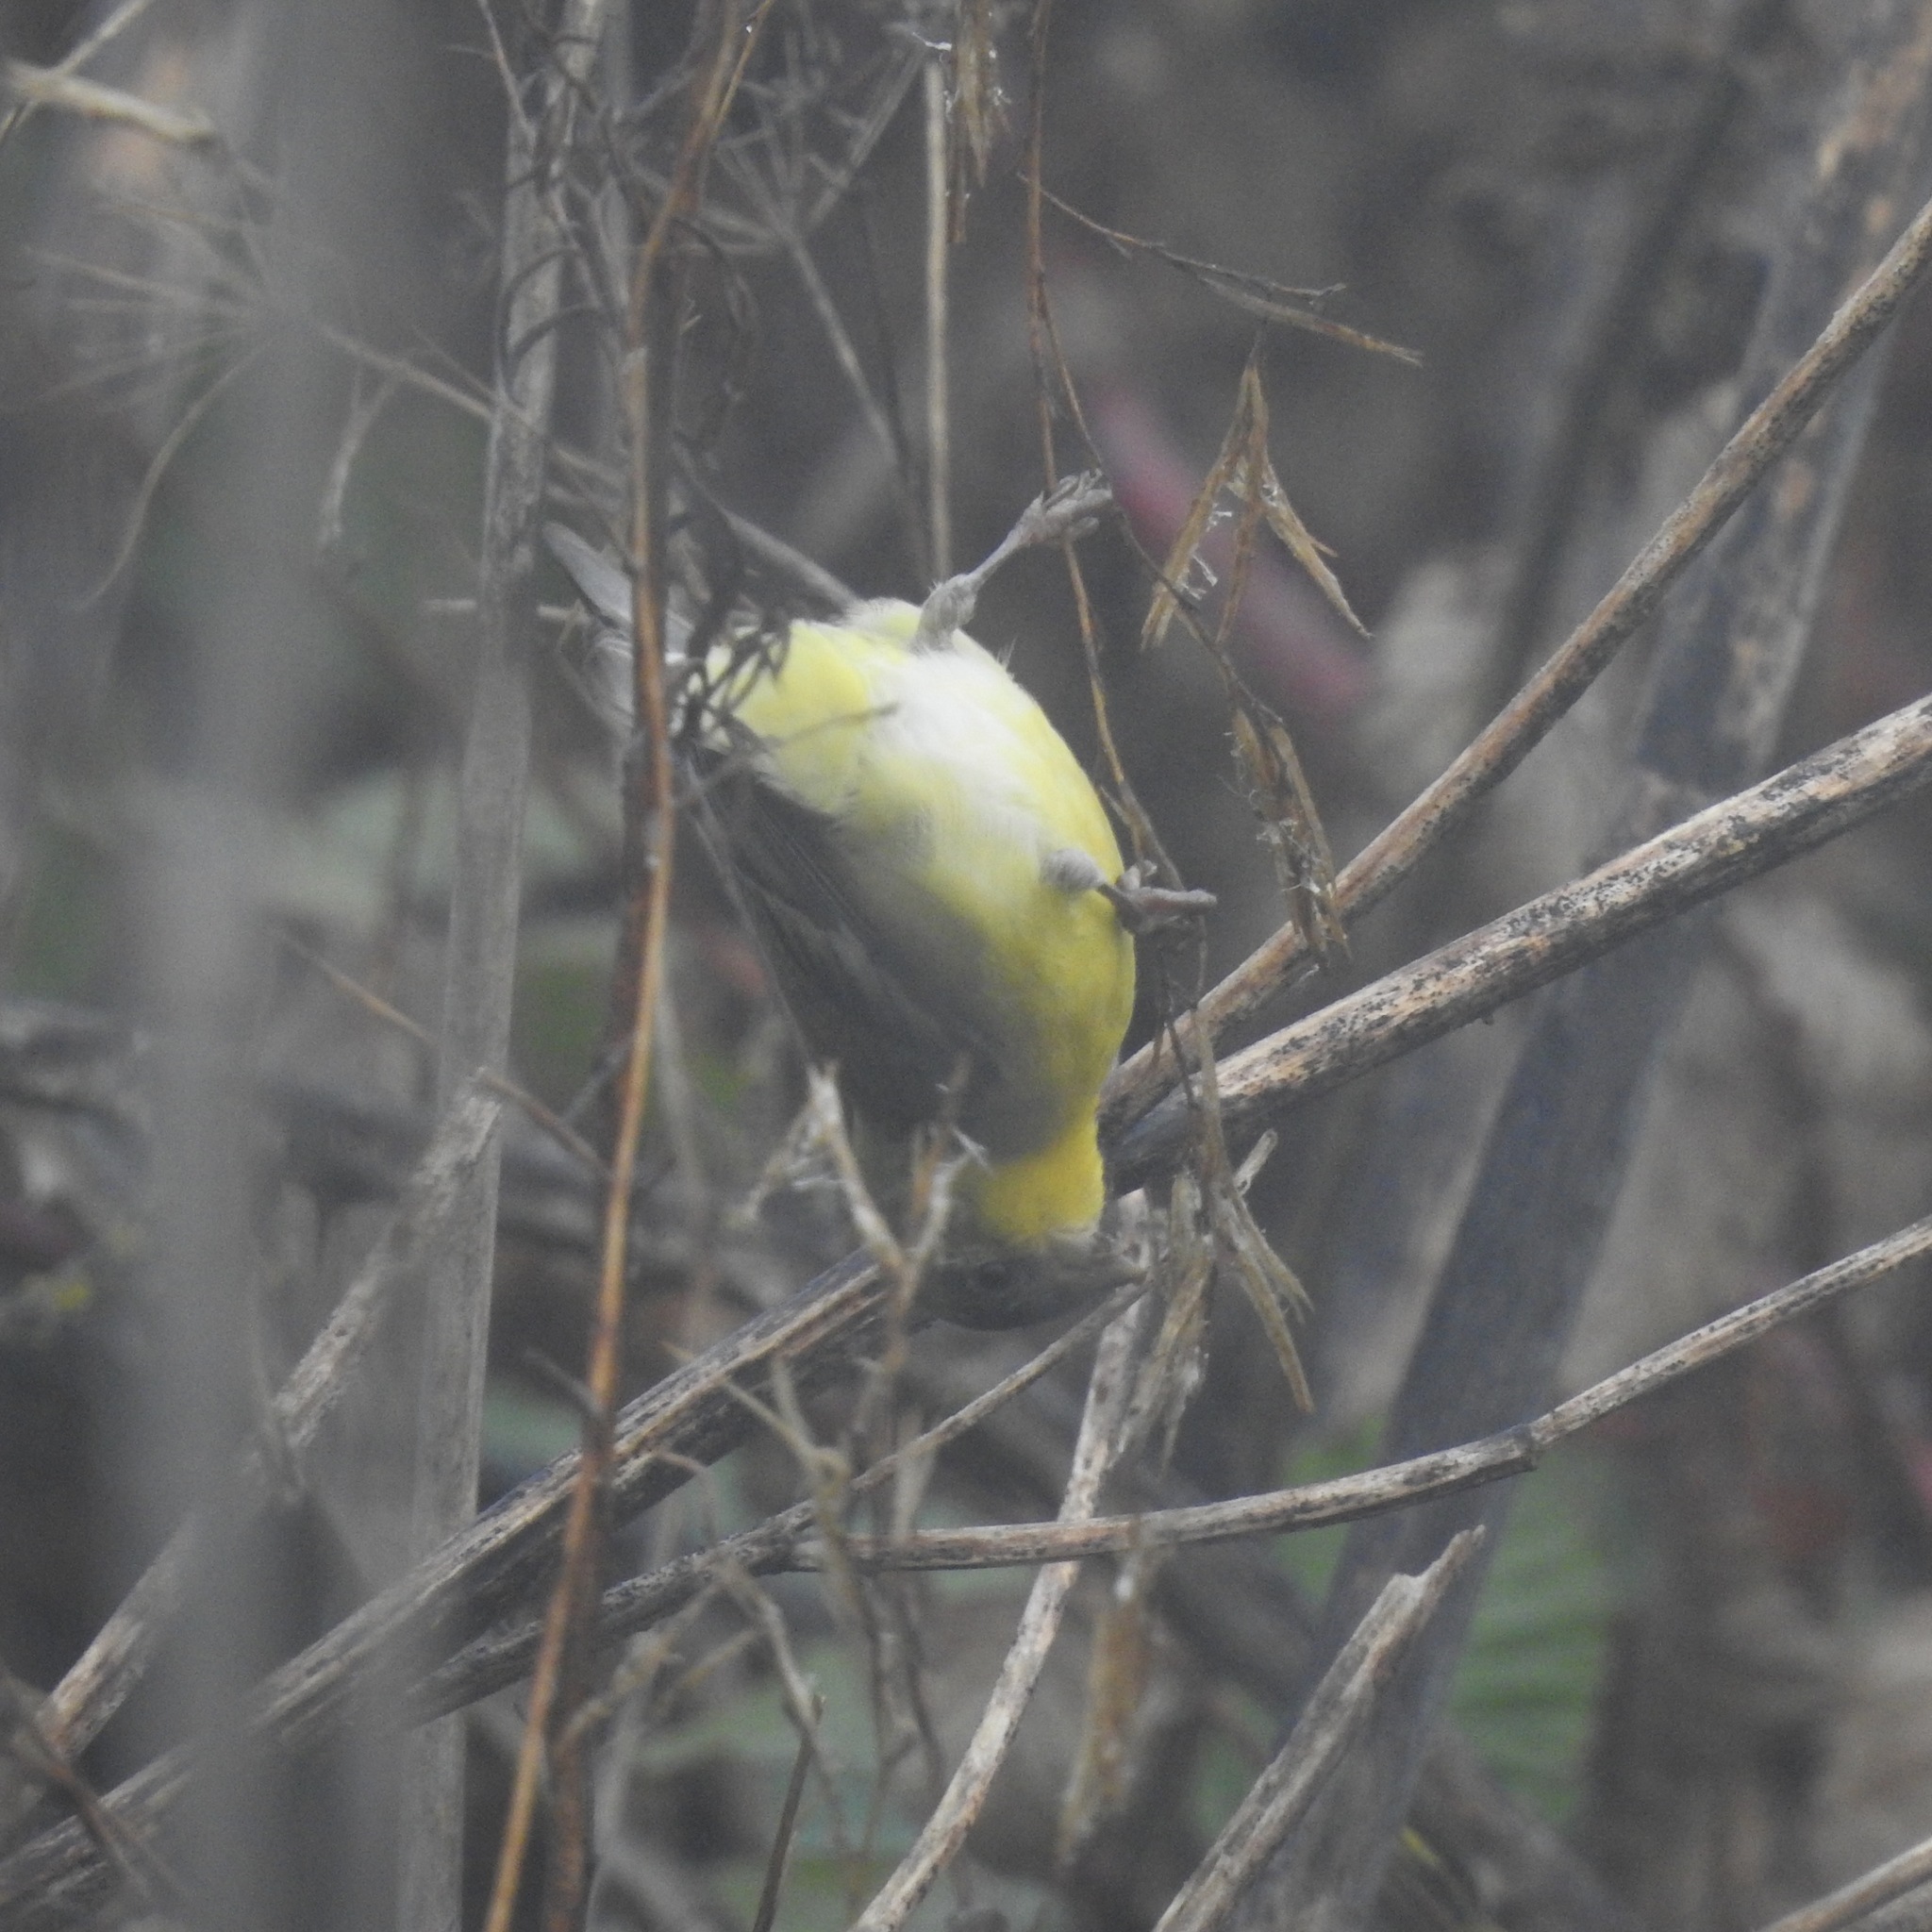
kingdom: Animalia
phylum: Chordata
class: Aves
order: Passeriformes
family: Fringillidae
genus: Spinus
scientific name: Spinus psaltria
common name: Lesser goldfinch
